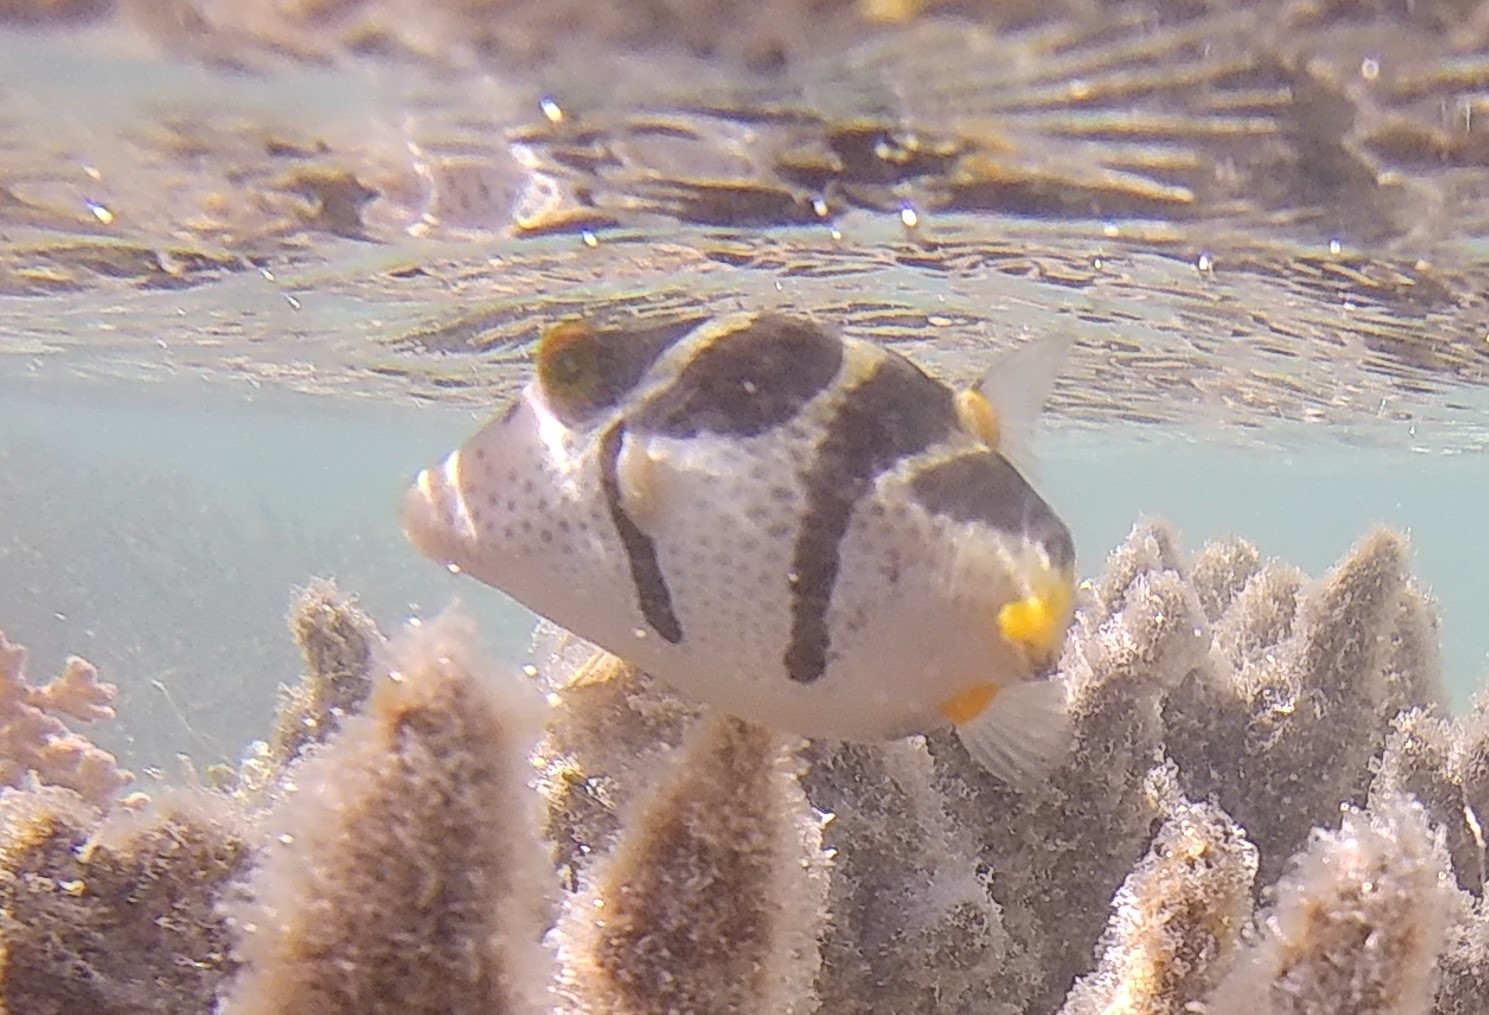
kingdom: Animalia
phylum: Chordata
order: Tetraodontiformes
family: Tetraodontidae
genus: Canthigaster
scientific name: Canthigaster valentini
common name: Banded toby
